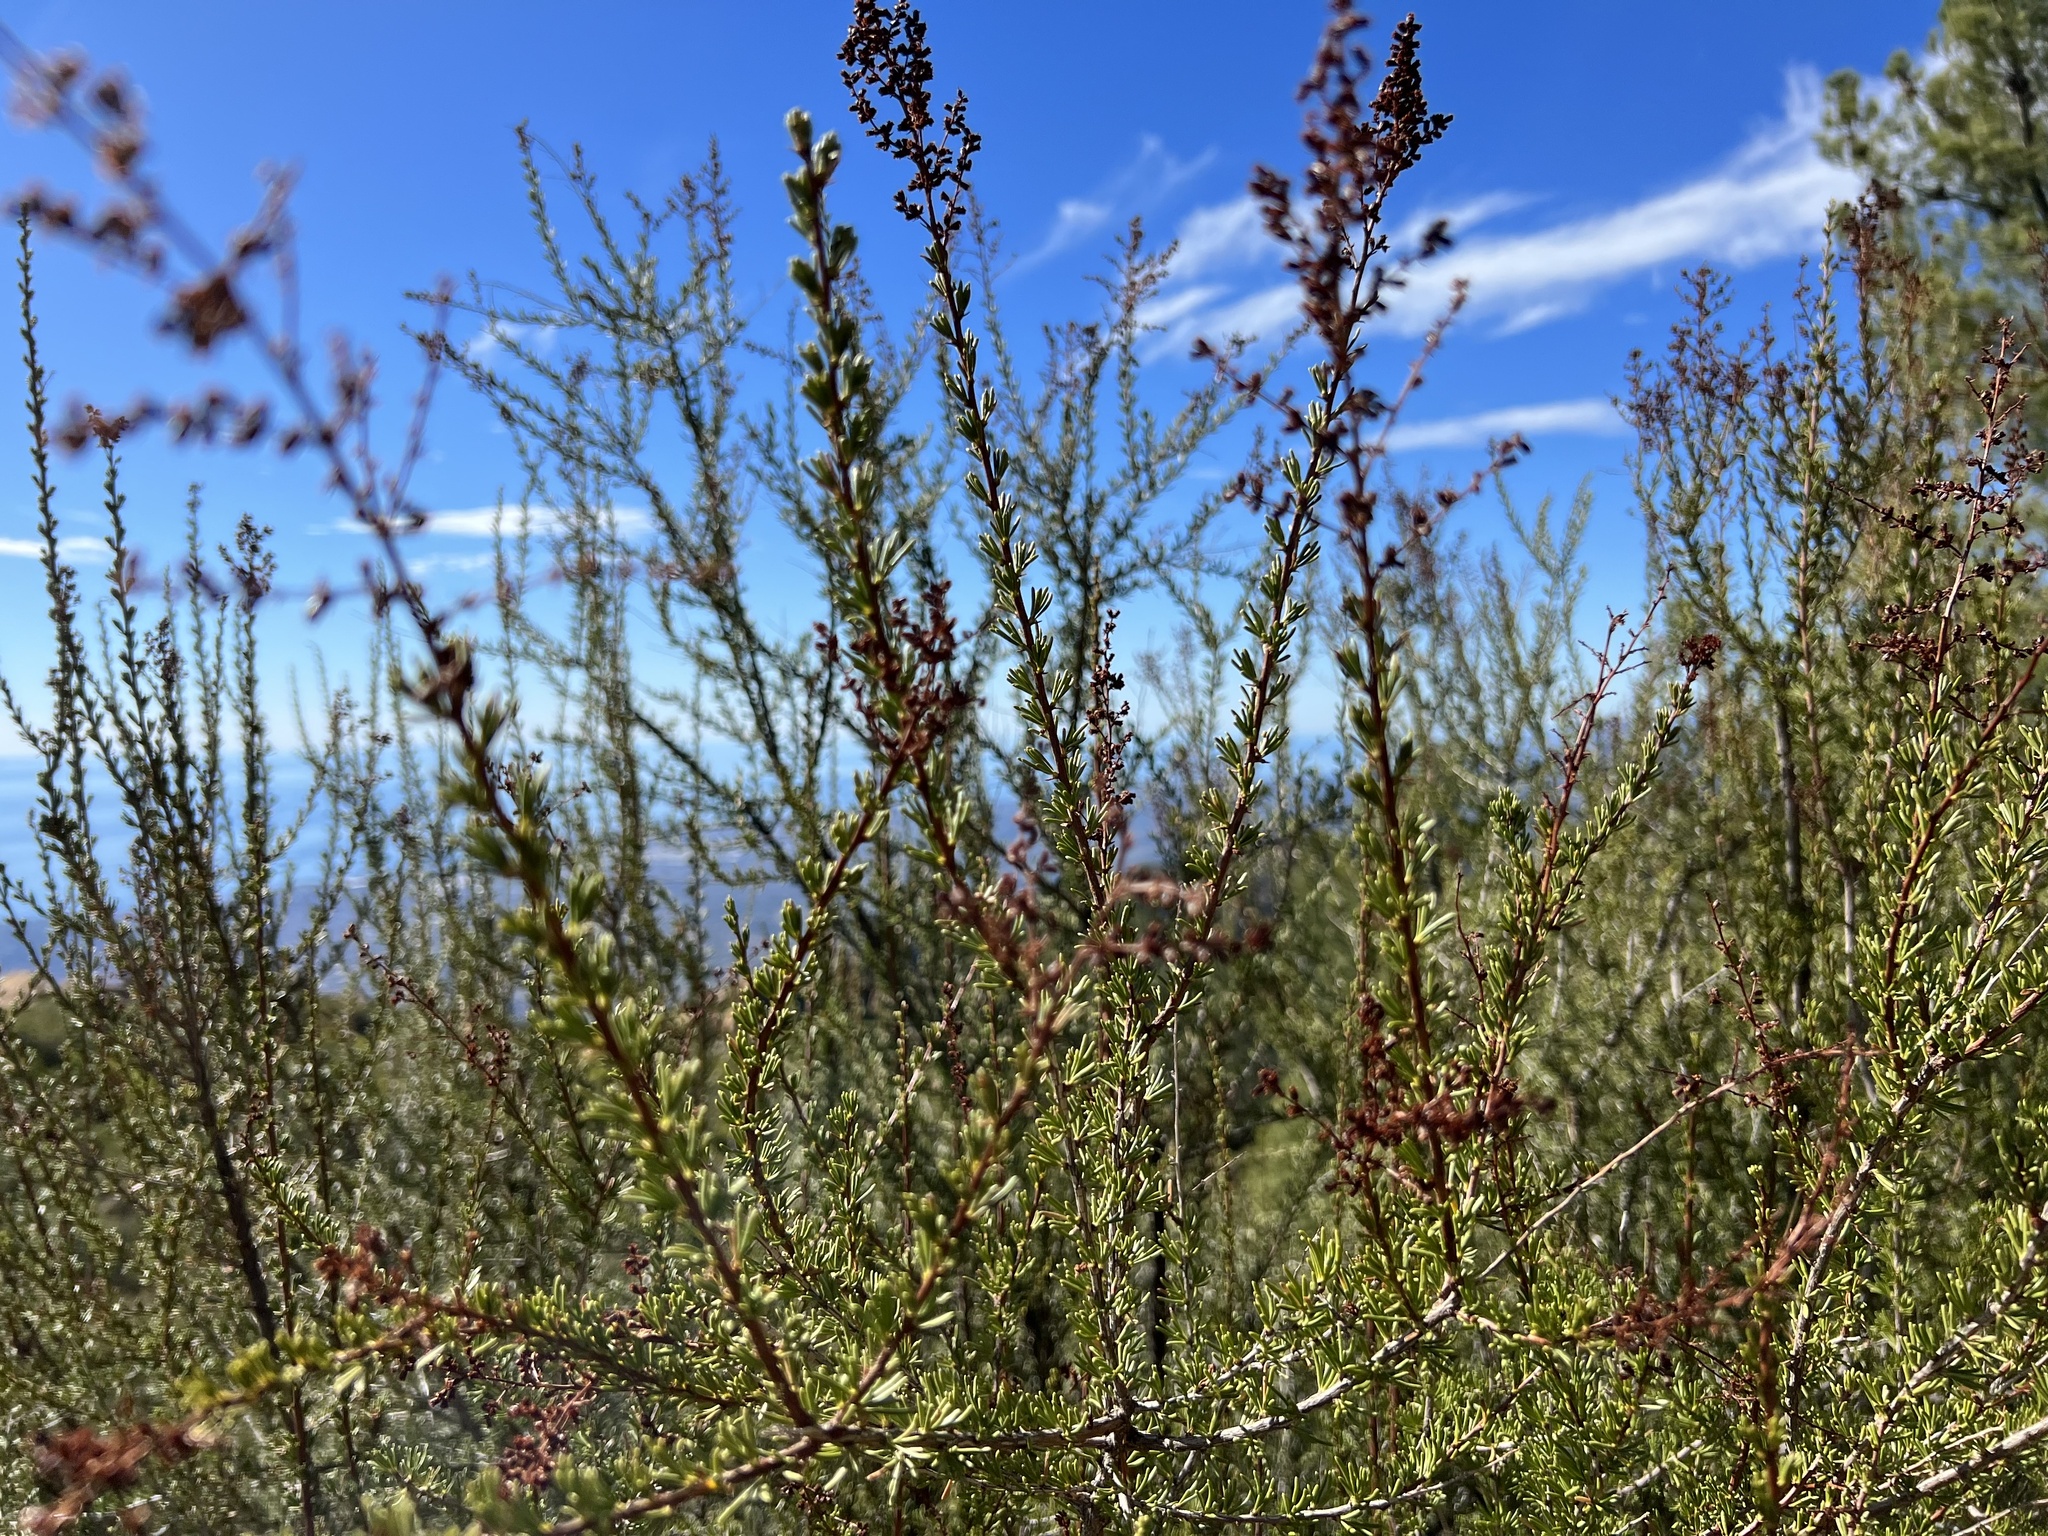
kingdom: Plantae
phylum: Tracheophyta
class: Magnoliopsida
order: Rosales
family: Rosaceae
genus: Adenostoma
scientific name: Adenostoma fasciculatum
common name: Chamise
